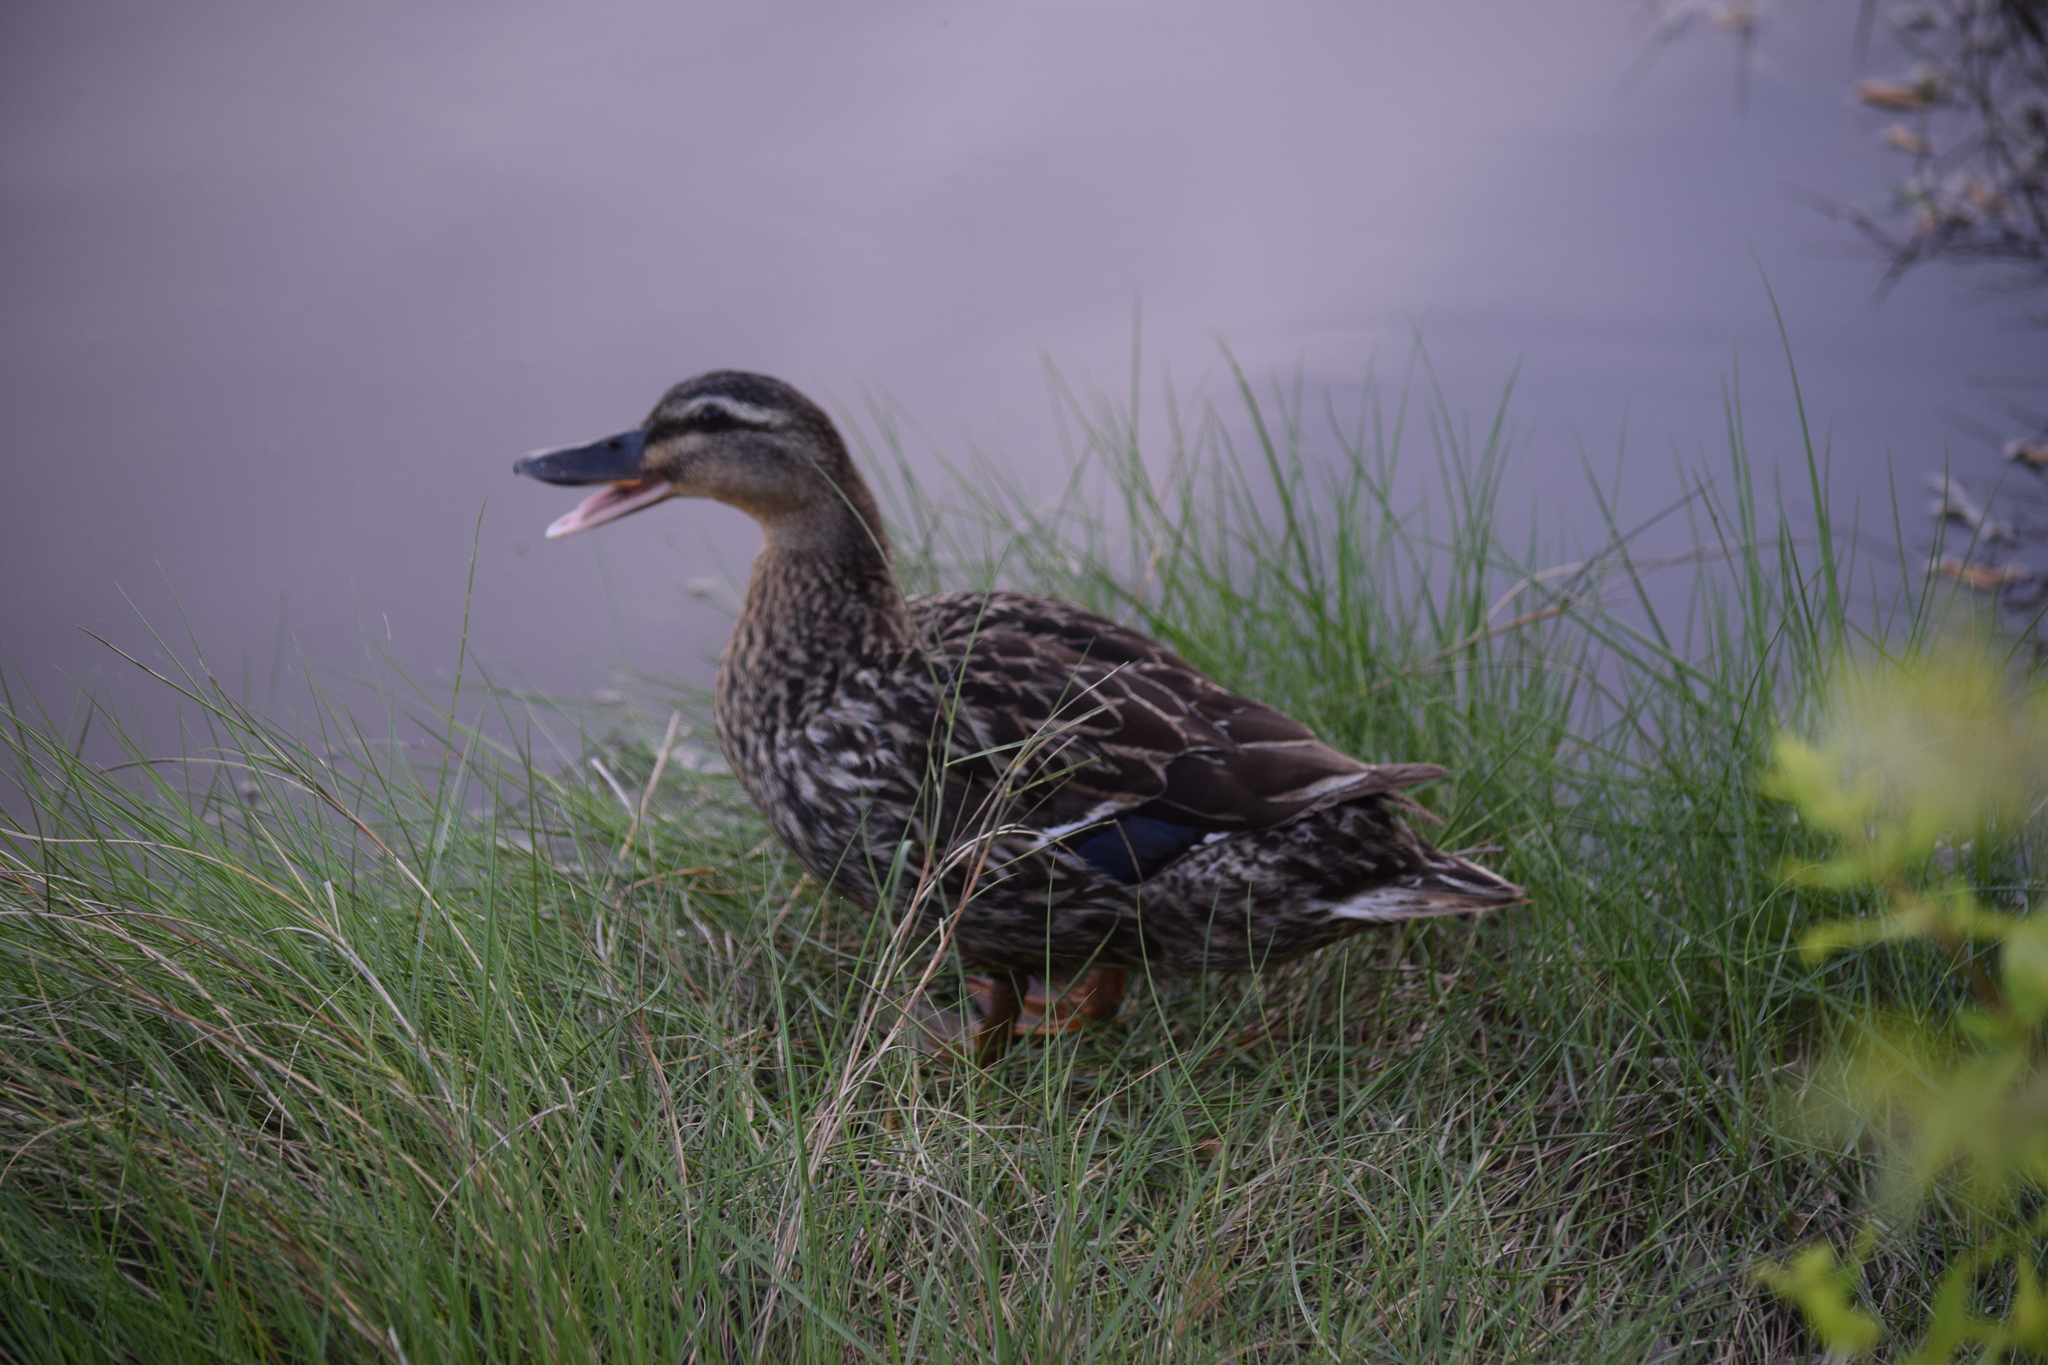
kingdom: Animalia
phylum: Chordata
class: Aves
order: Anseriformes
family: Anatidae
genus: Anas
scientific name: Anas platyrhynchos
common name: Mallard
